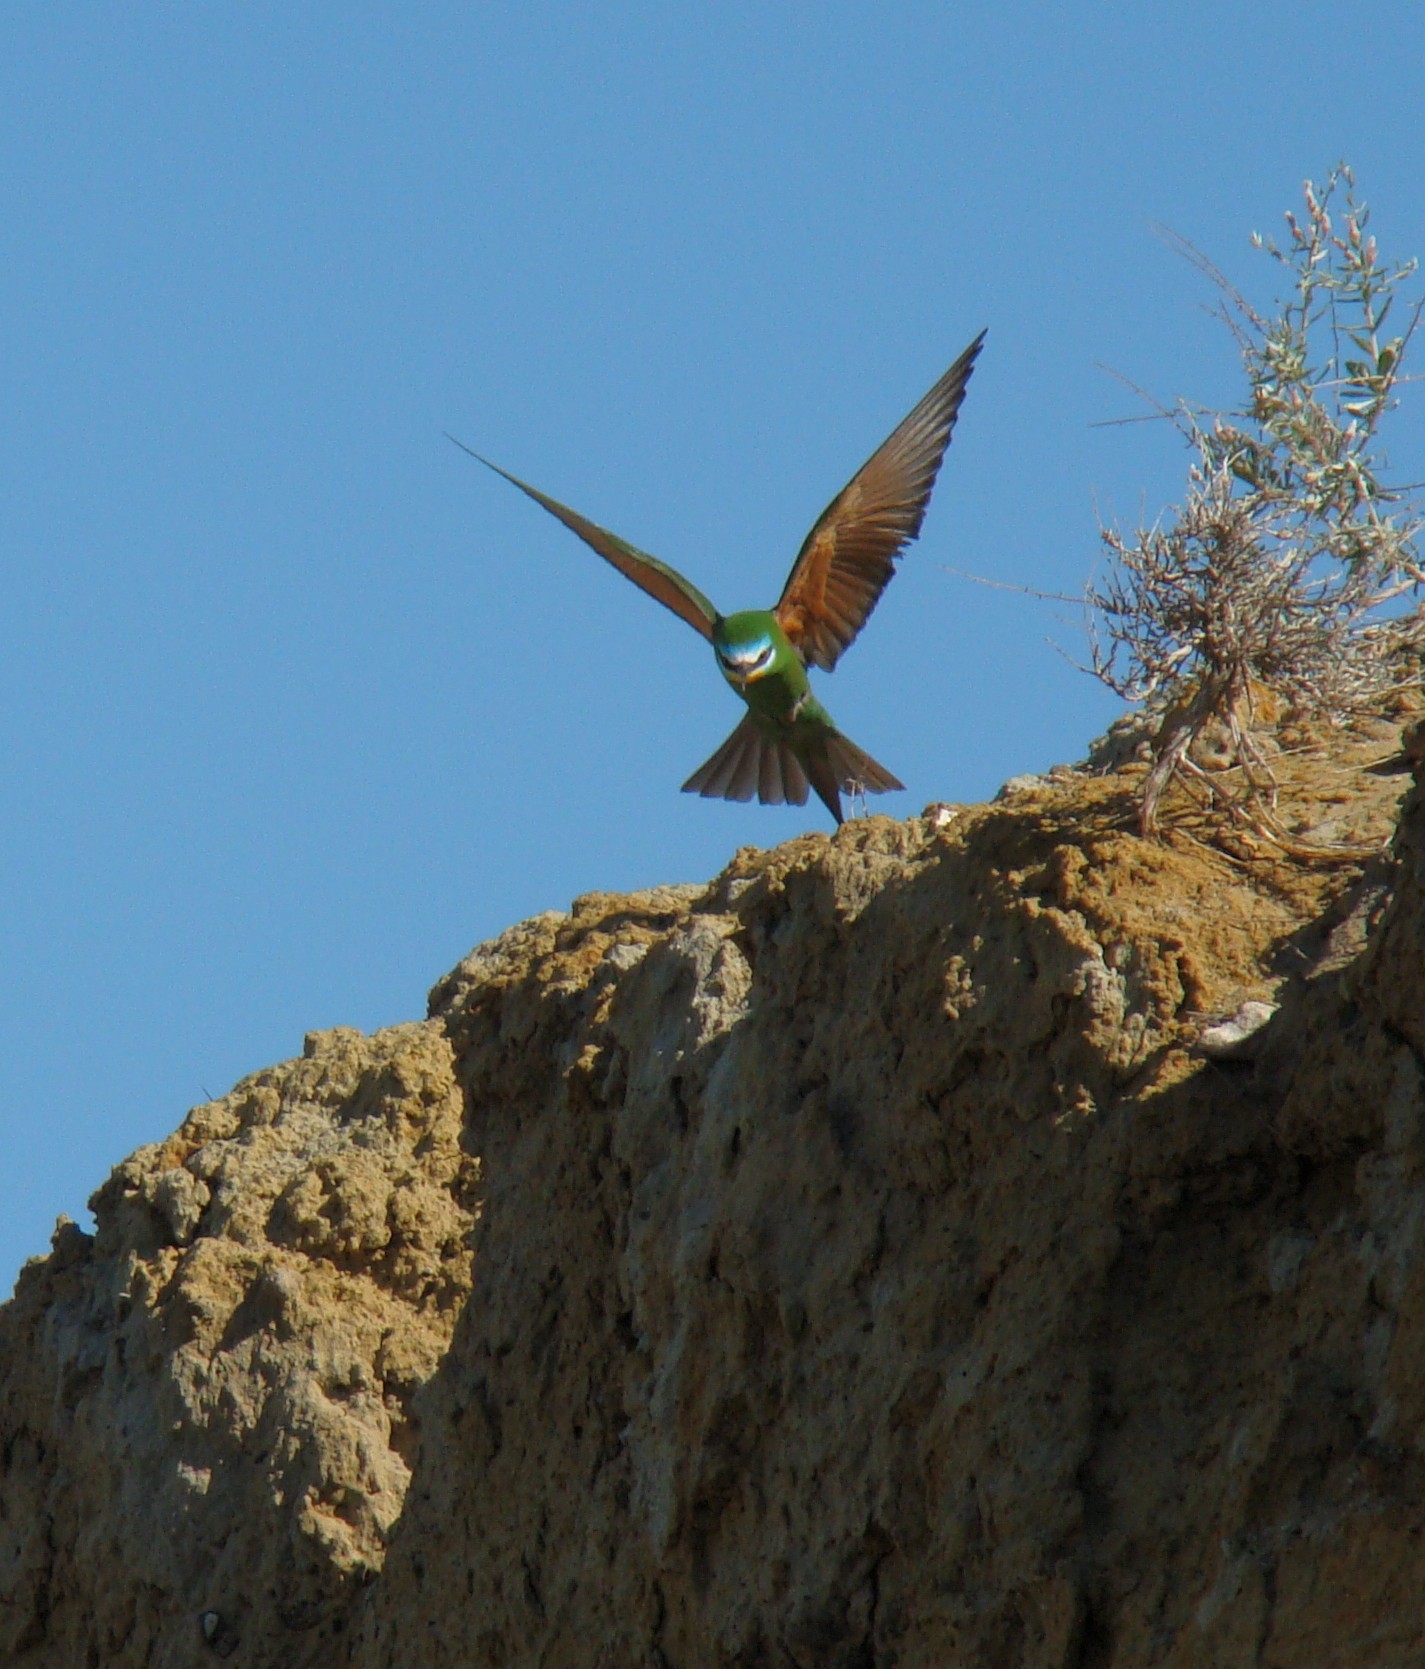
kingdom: Animalia
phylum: Chordata
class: Aves
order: Coraciiformes
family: Meropidae
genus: Merops
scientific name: Merops persicus
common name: Blue-cheeked bee-eater
